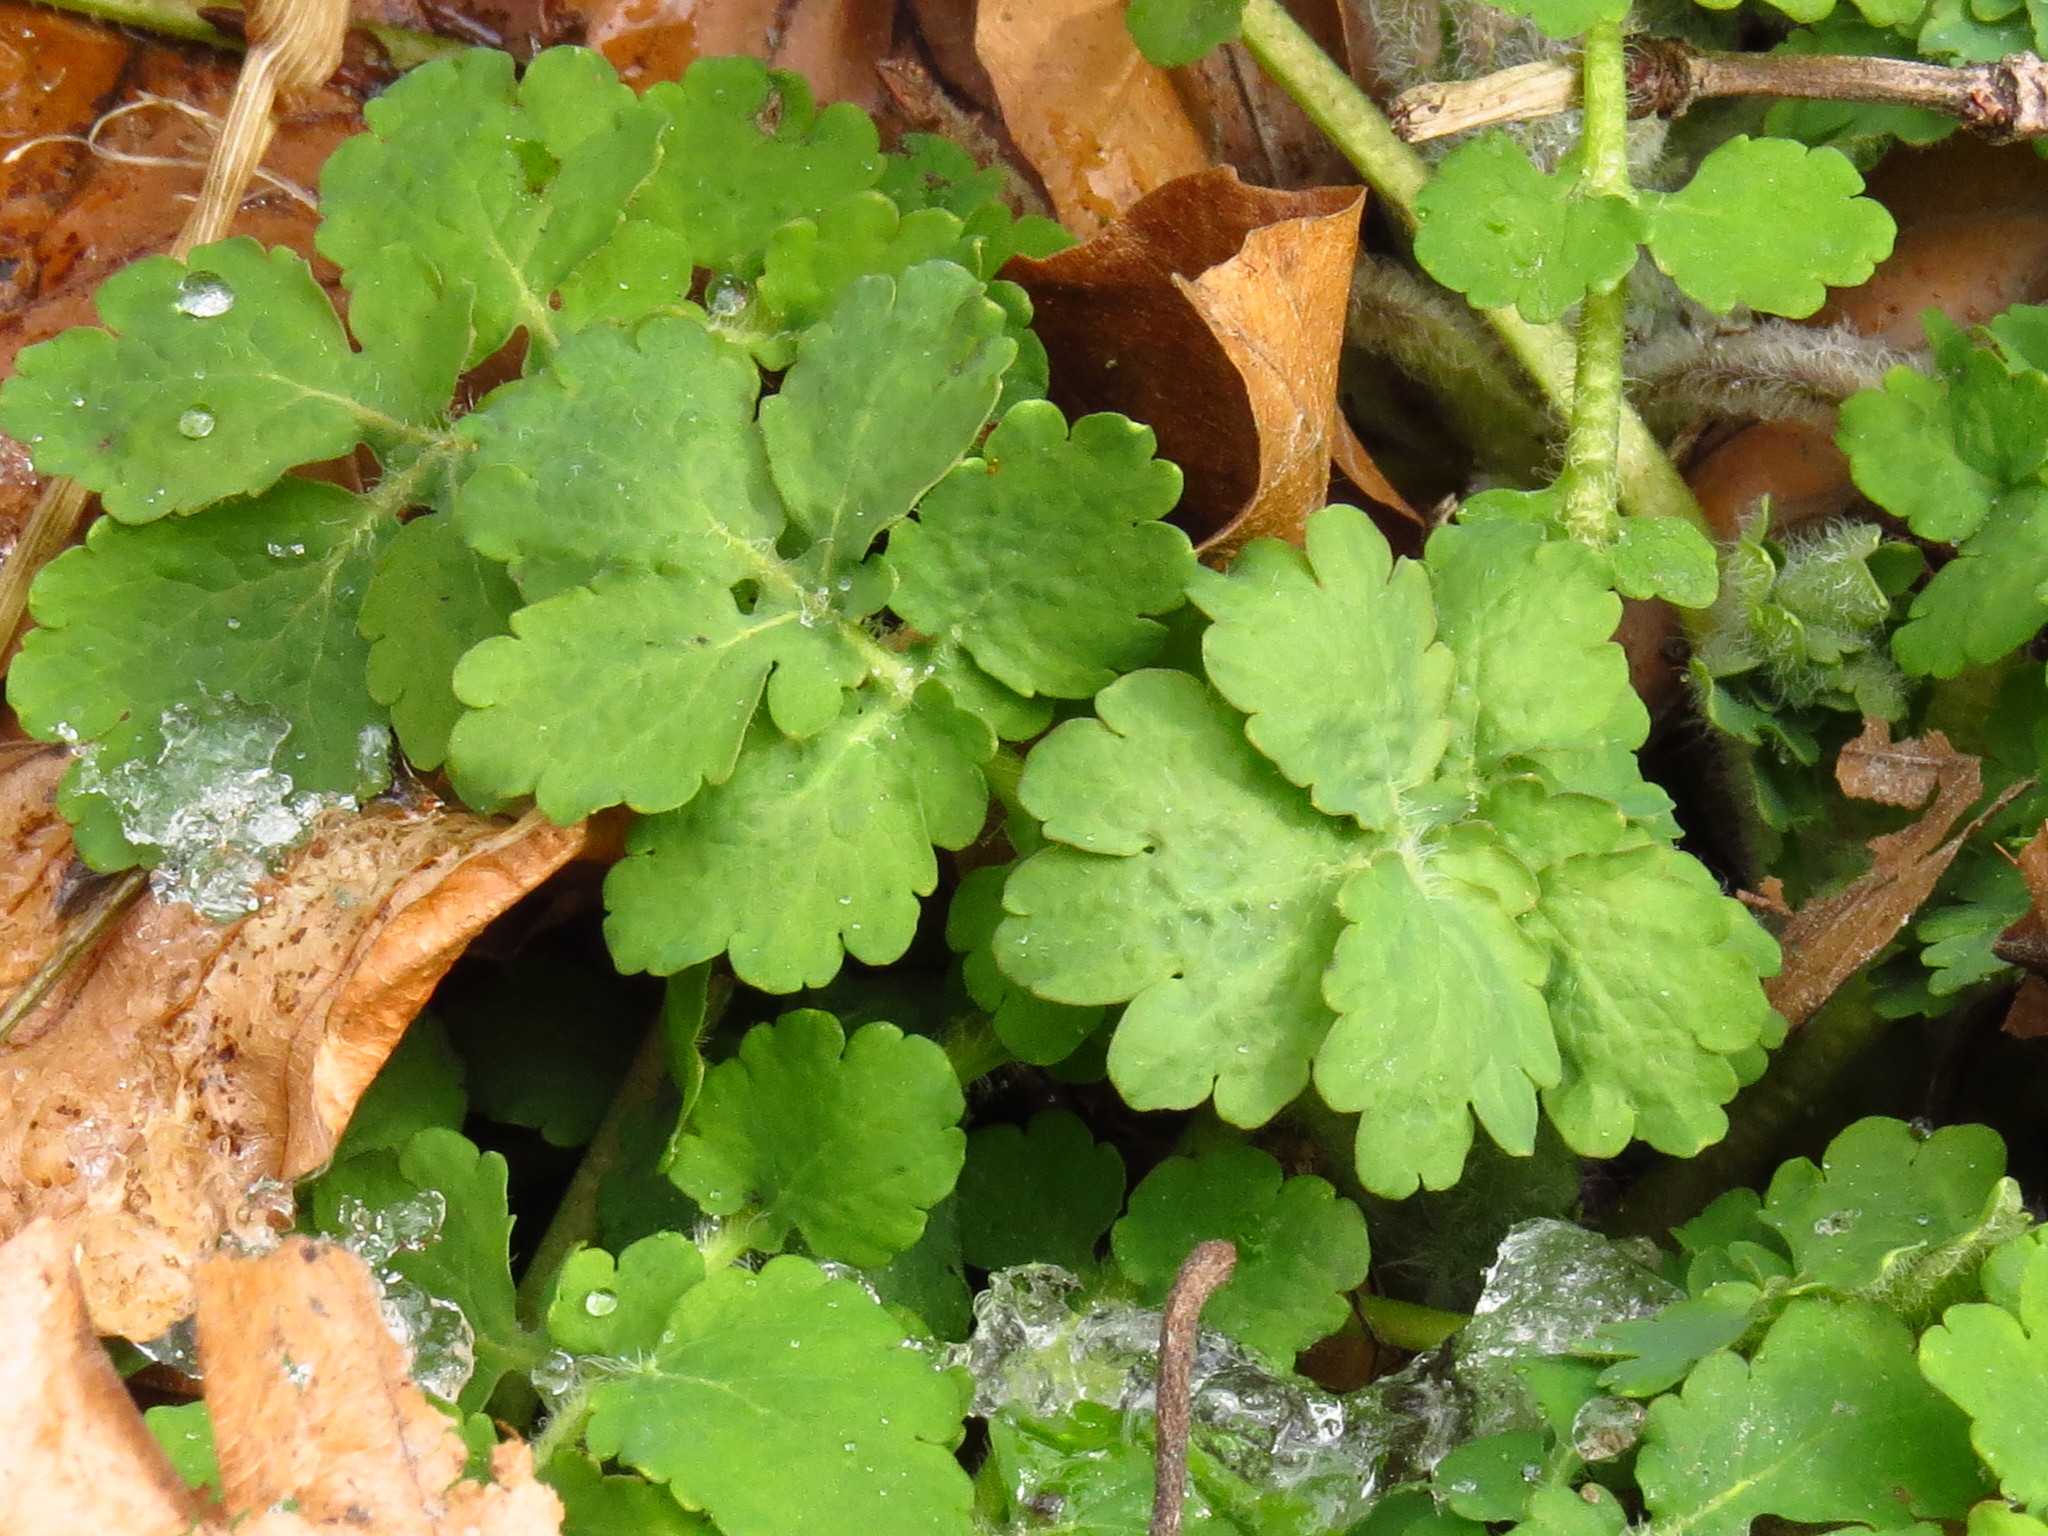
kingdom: Plantae
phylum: Tracheophyta
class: Magnoliopsida
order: Ranunculales
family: Papaveraceae
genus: Chelidonium
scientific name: Chelidonium majus
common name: Greater celandine
